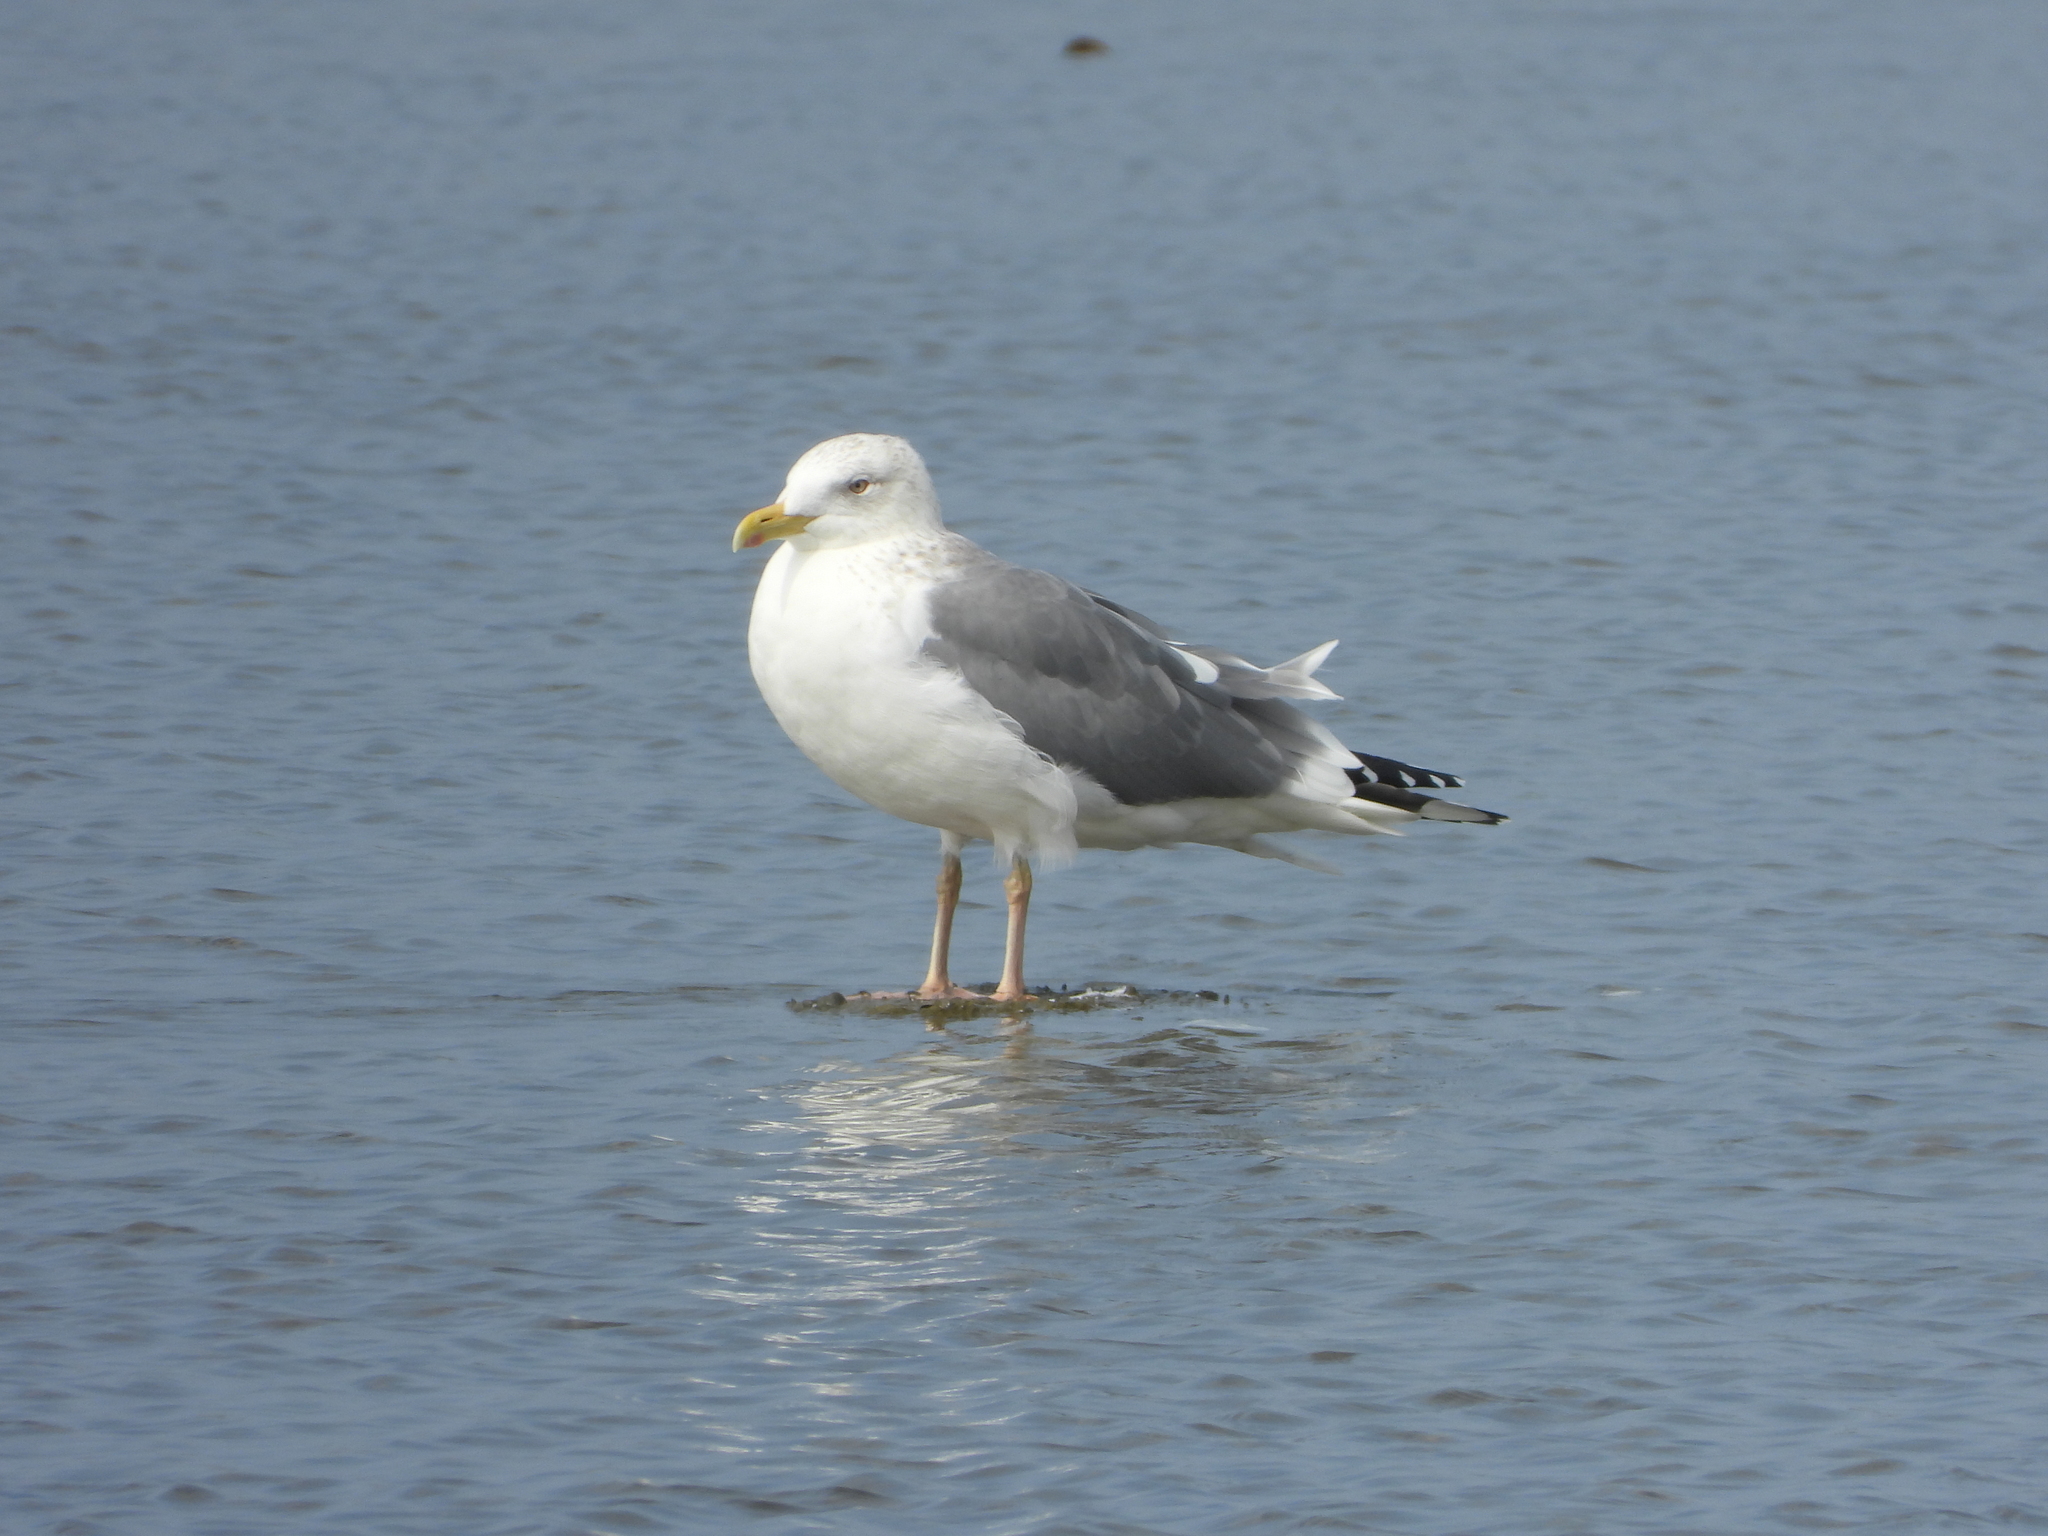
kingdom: Animalia
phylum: Chordata
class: Aves
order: Charadriiformes
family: Laridae
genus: Larus
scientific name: Larus argentatus
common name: Herring gull
